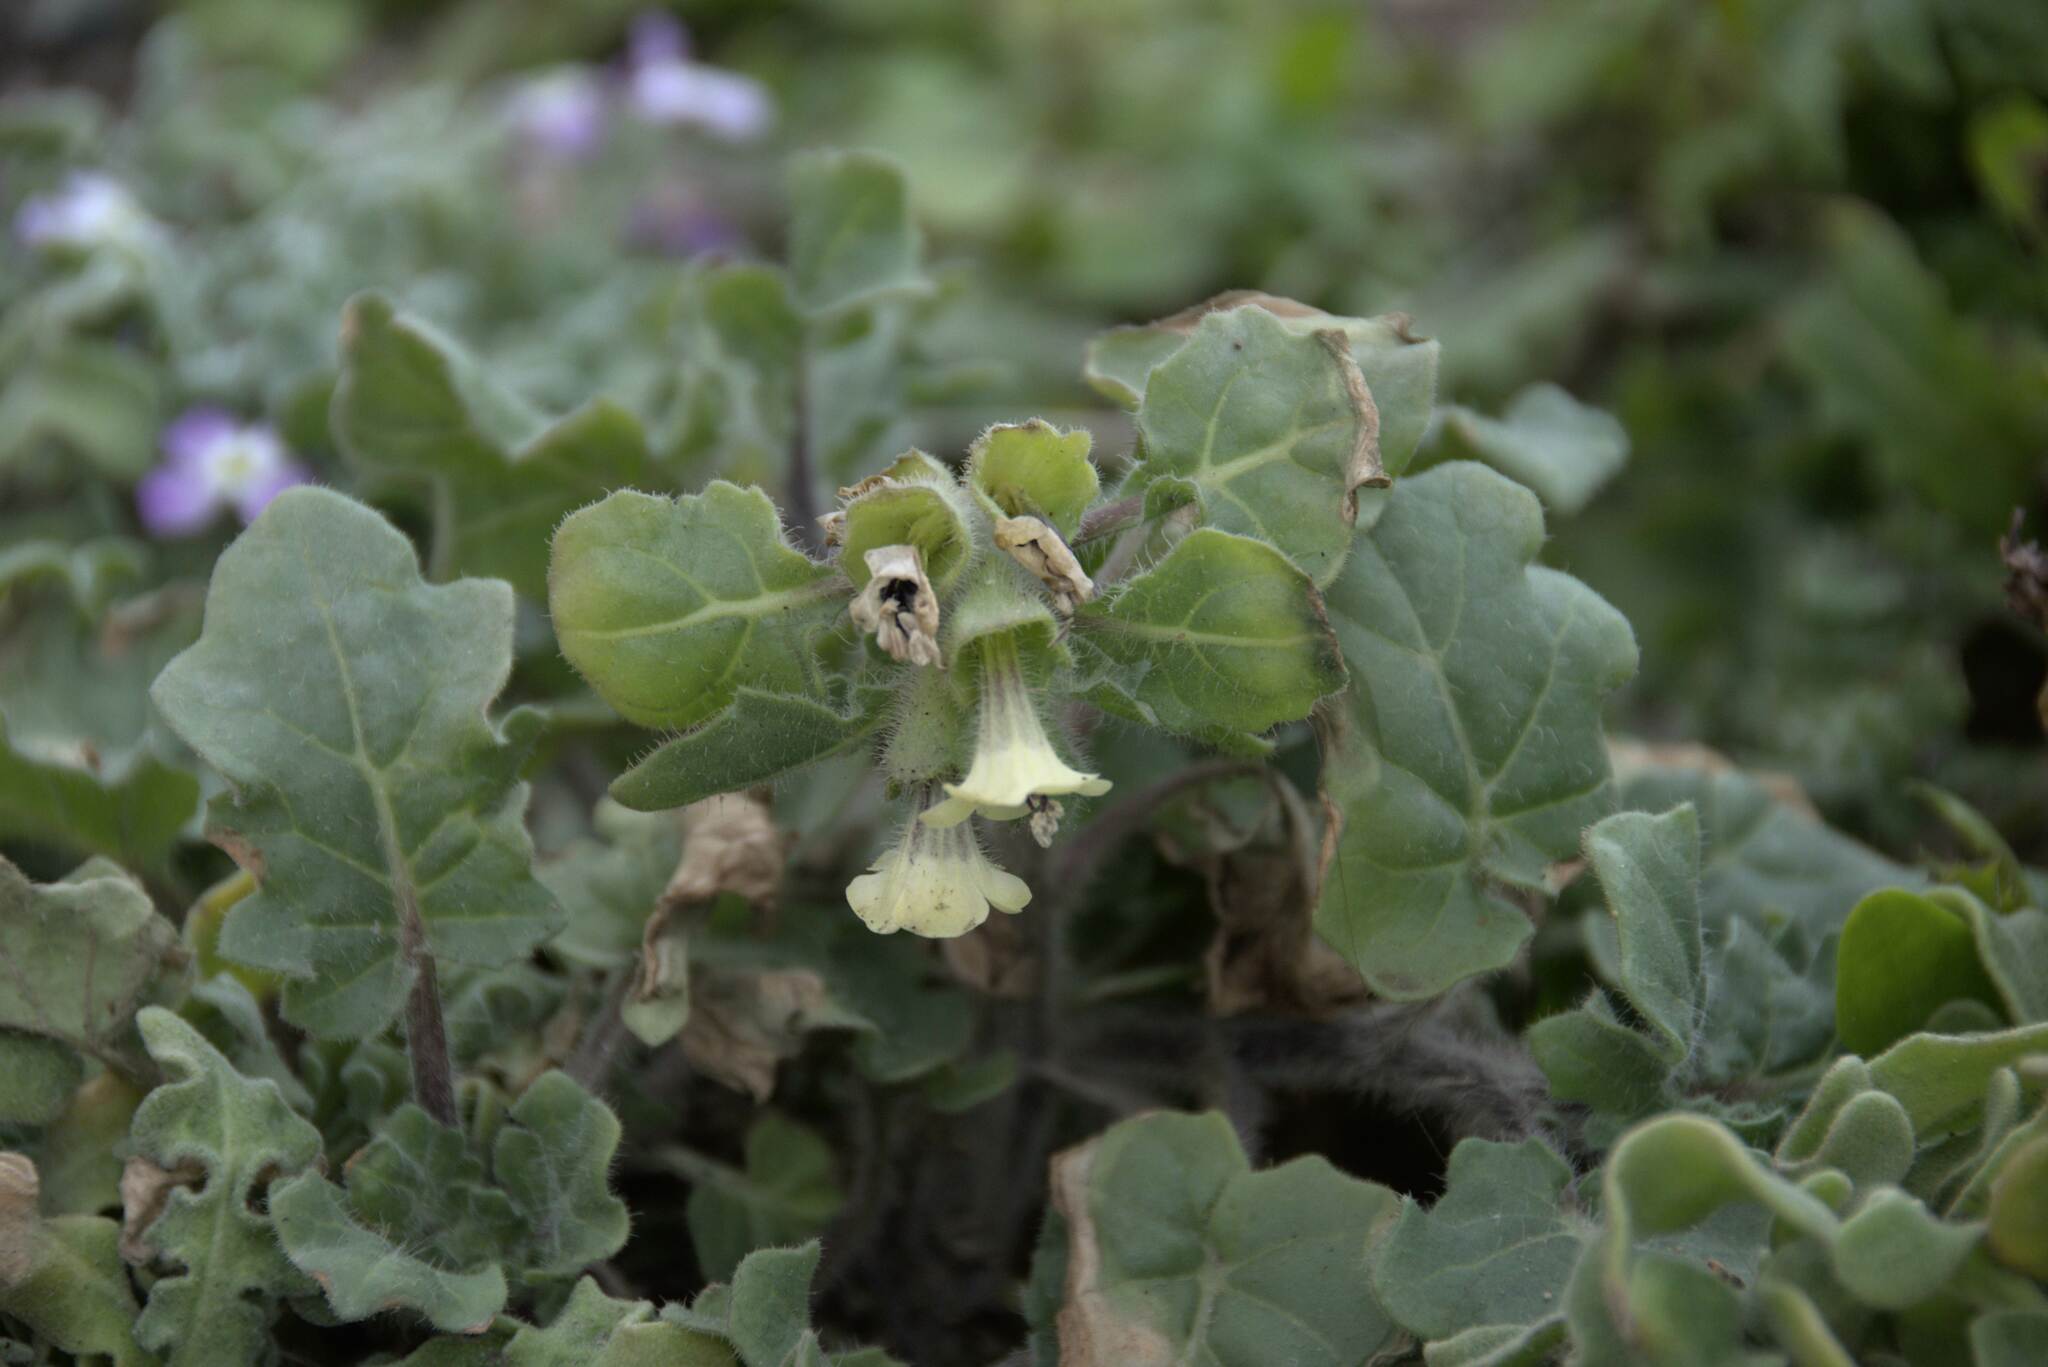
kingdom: Plantae
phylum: Tracheophyta
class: Magnoliopsida
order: Solanales
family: Solanaceae
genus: Hyoscyamus
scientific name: Hyoscyamus albus
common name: White henbane
